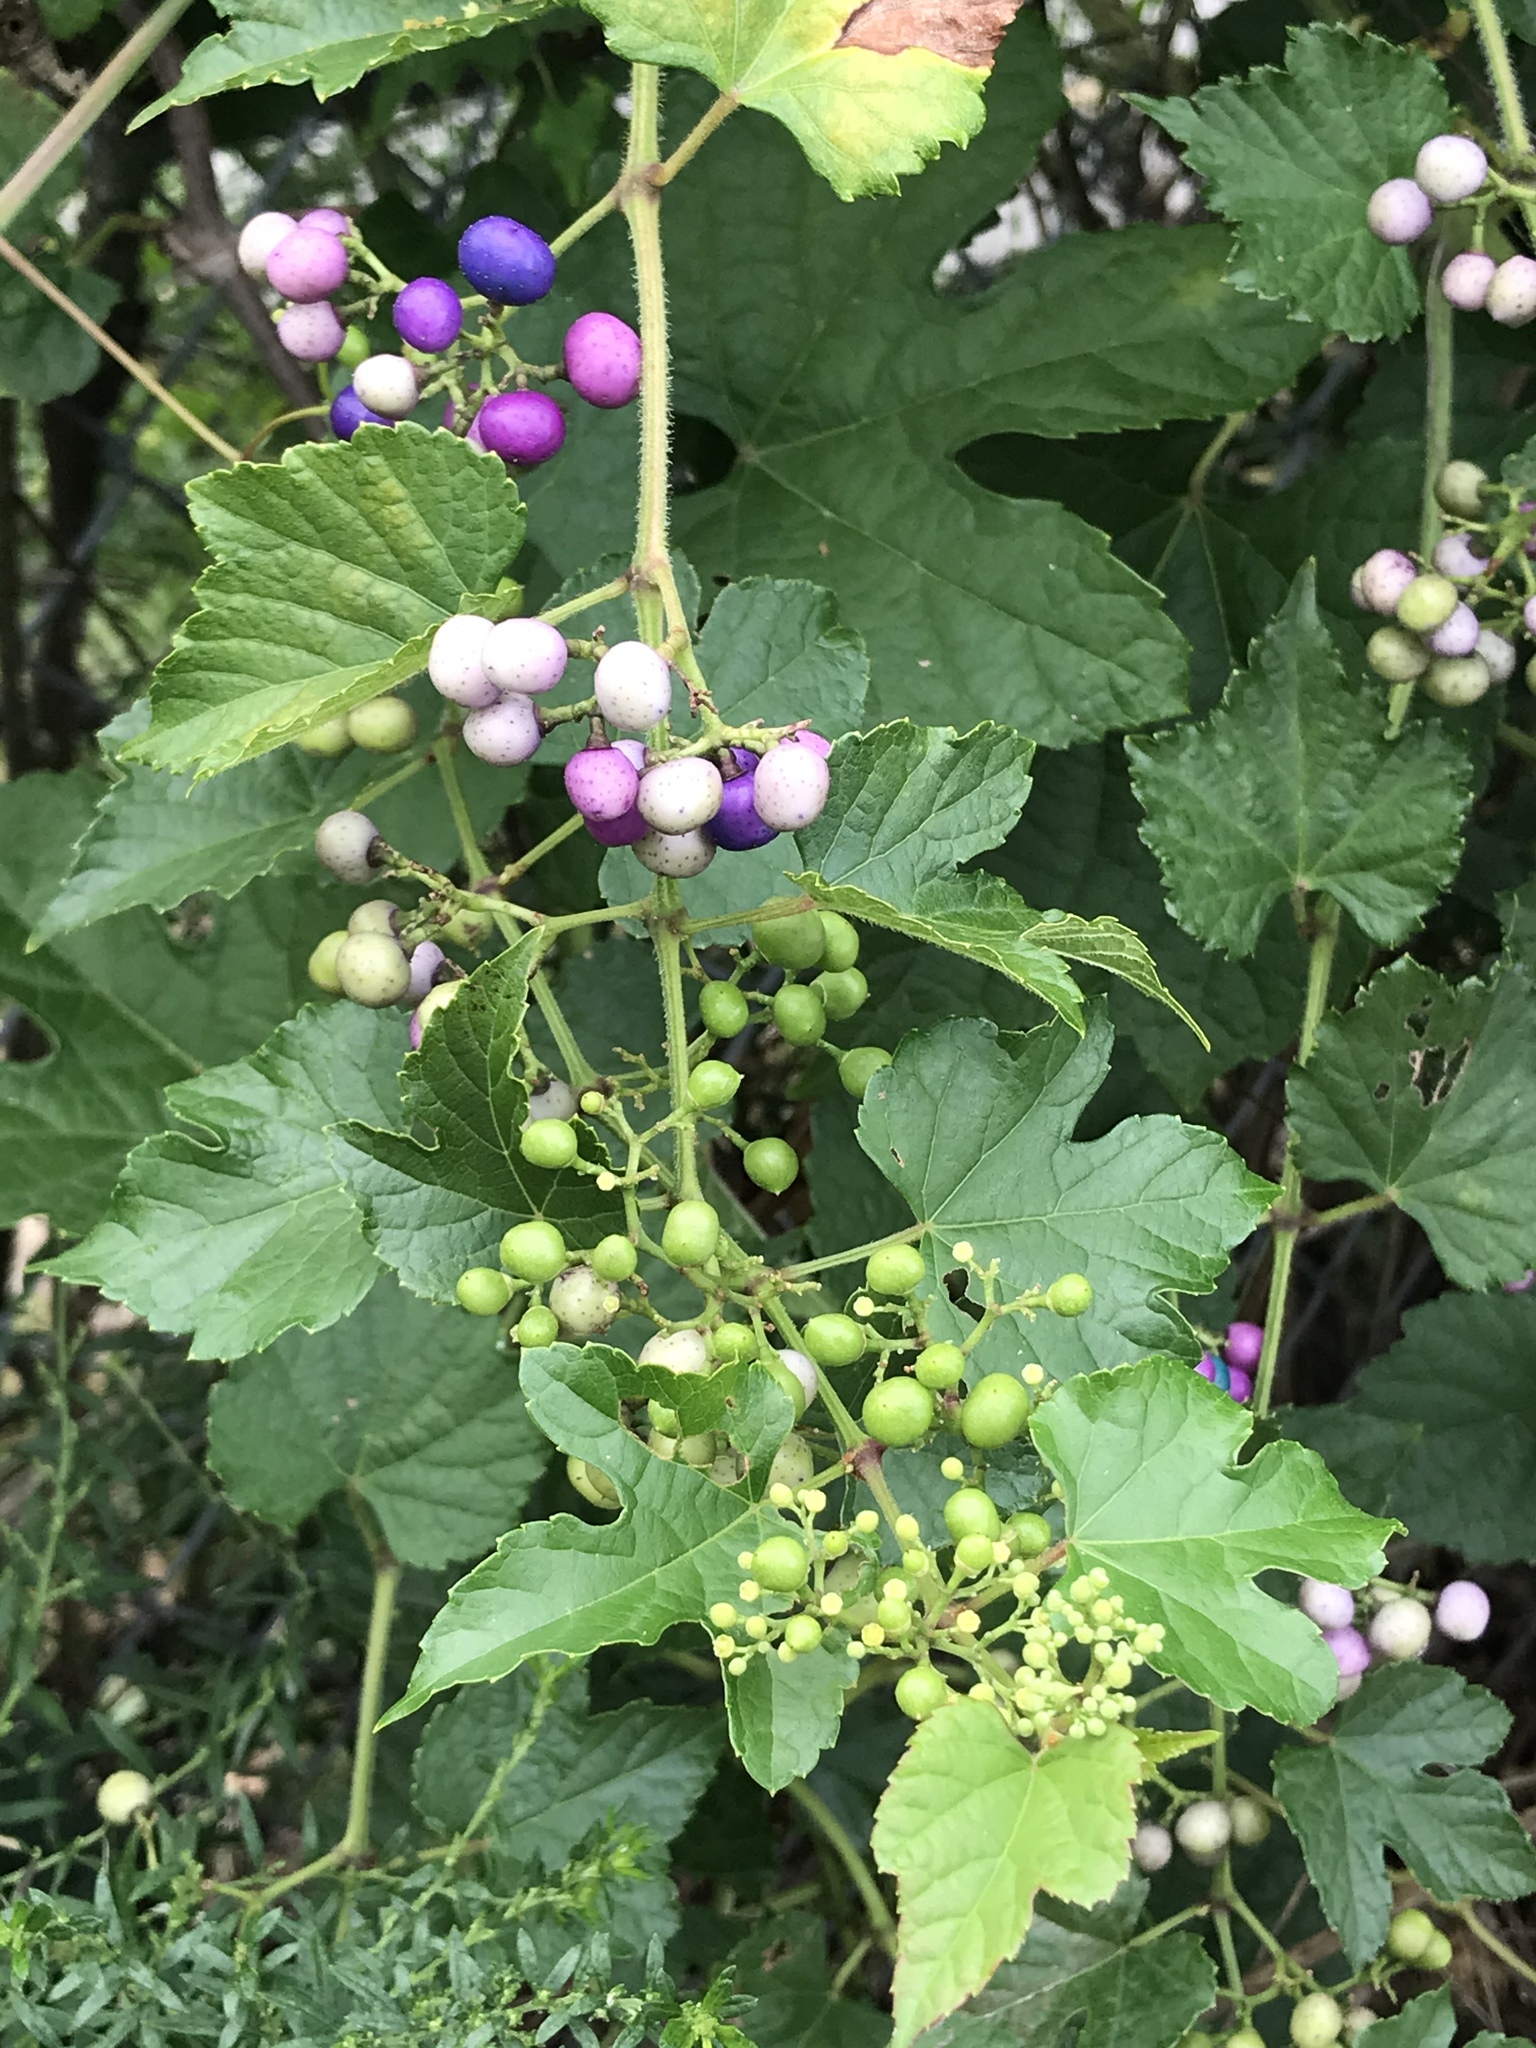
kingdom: Plantae
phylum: Tracheophyta
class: Magnoliopsida
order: Vitales
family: Vitaceae
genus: Ampelopsis
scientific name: Ampelopsis glandulosa
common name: Amur peppervine
